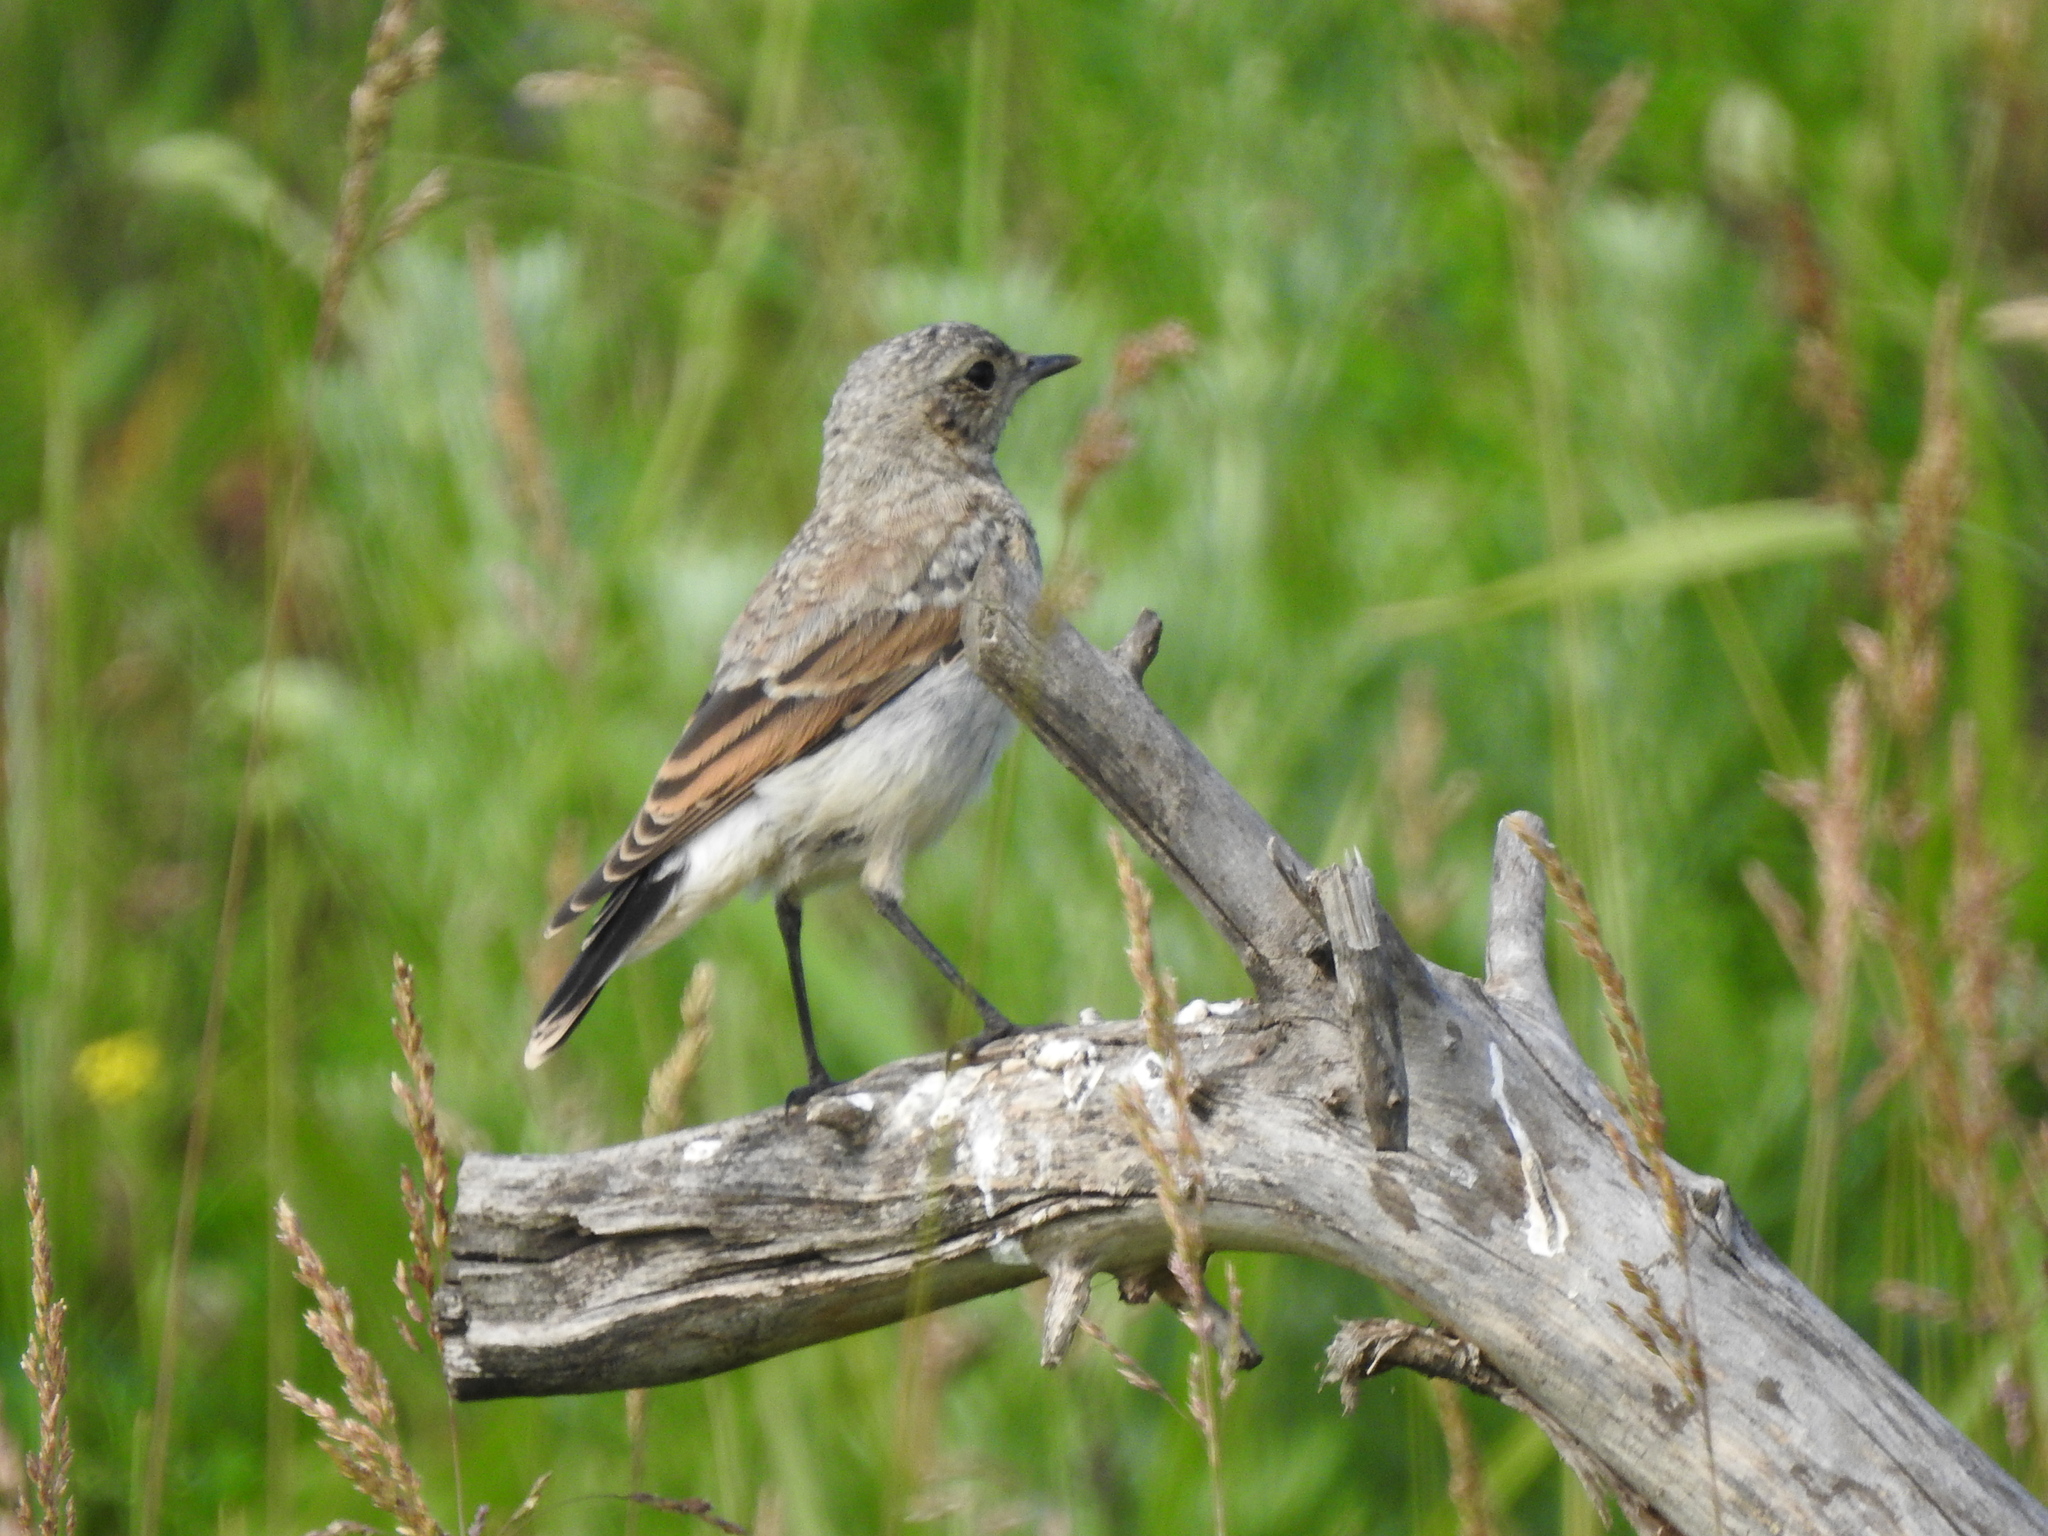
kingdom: Animalia
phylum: Chordata
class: Aves
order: Passeriformes
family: Muscicapidae
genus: Oenanthe
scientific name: Oenanthe oenanthe
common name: Northern wheatear
